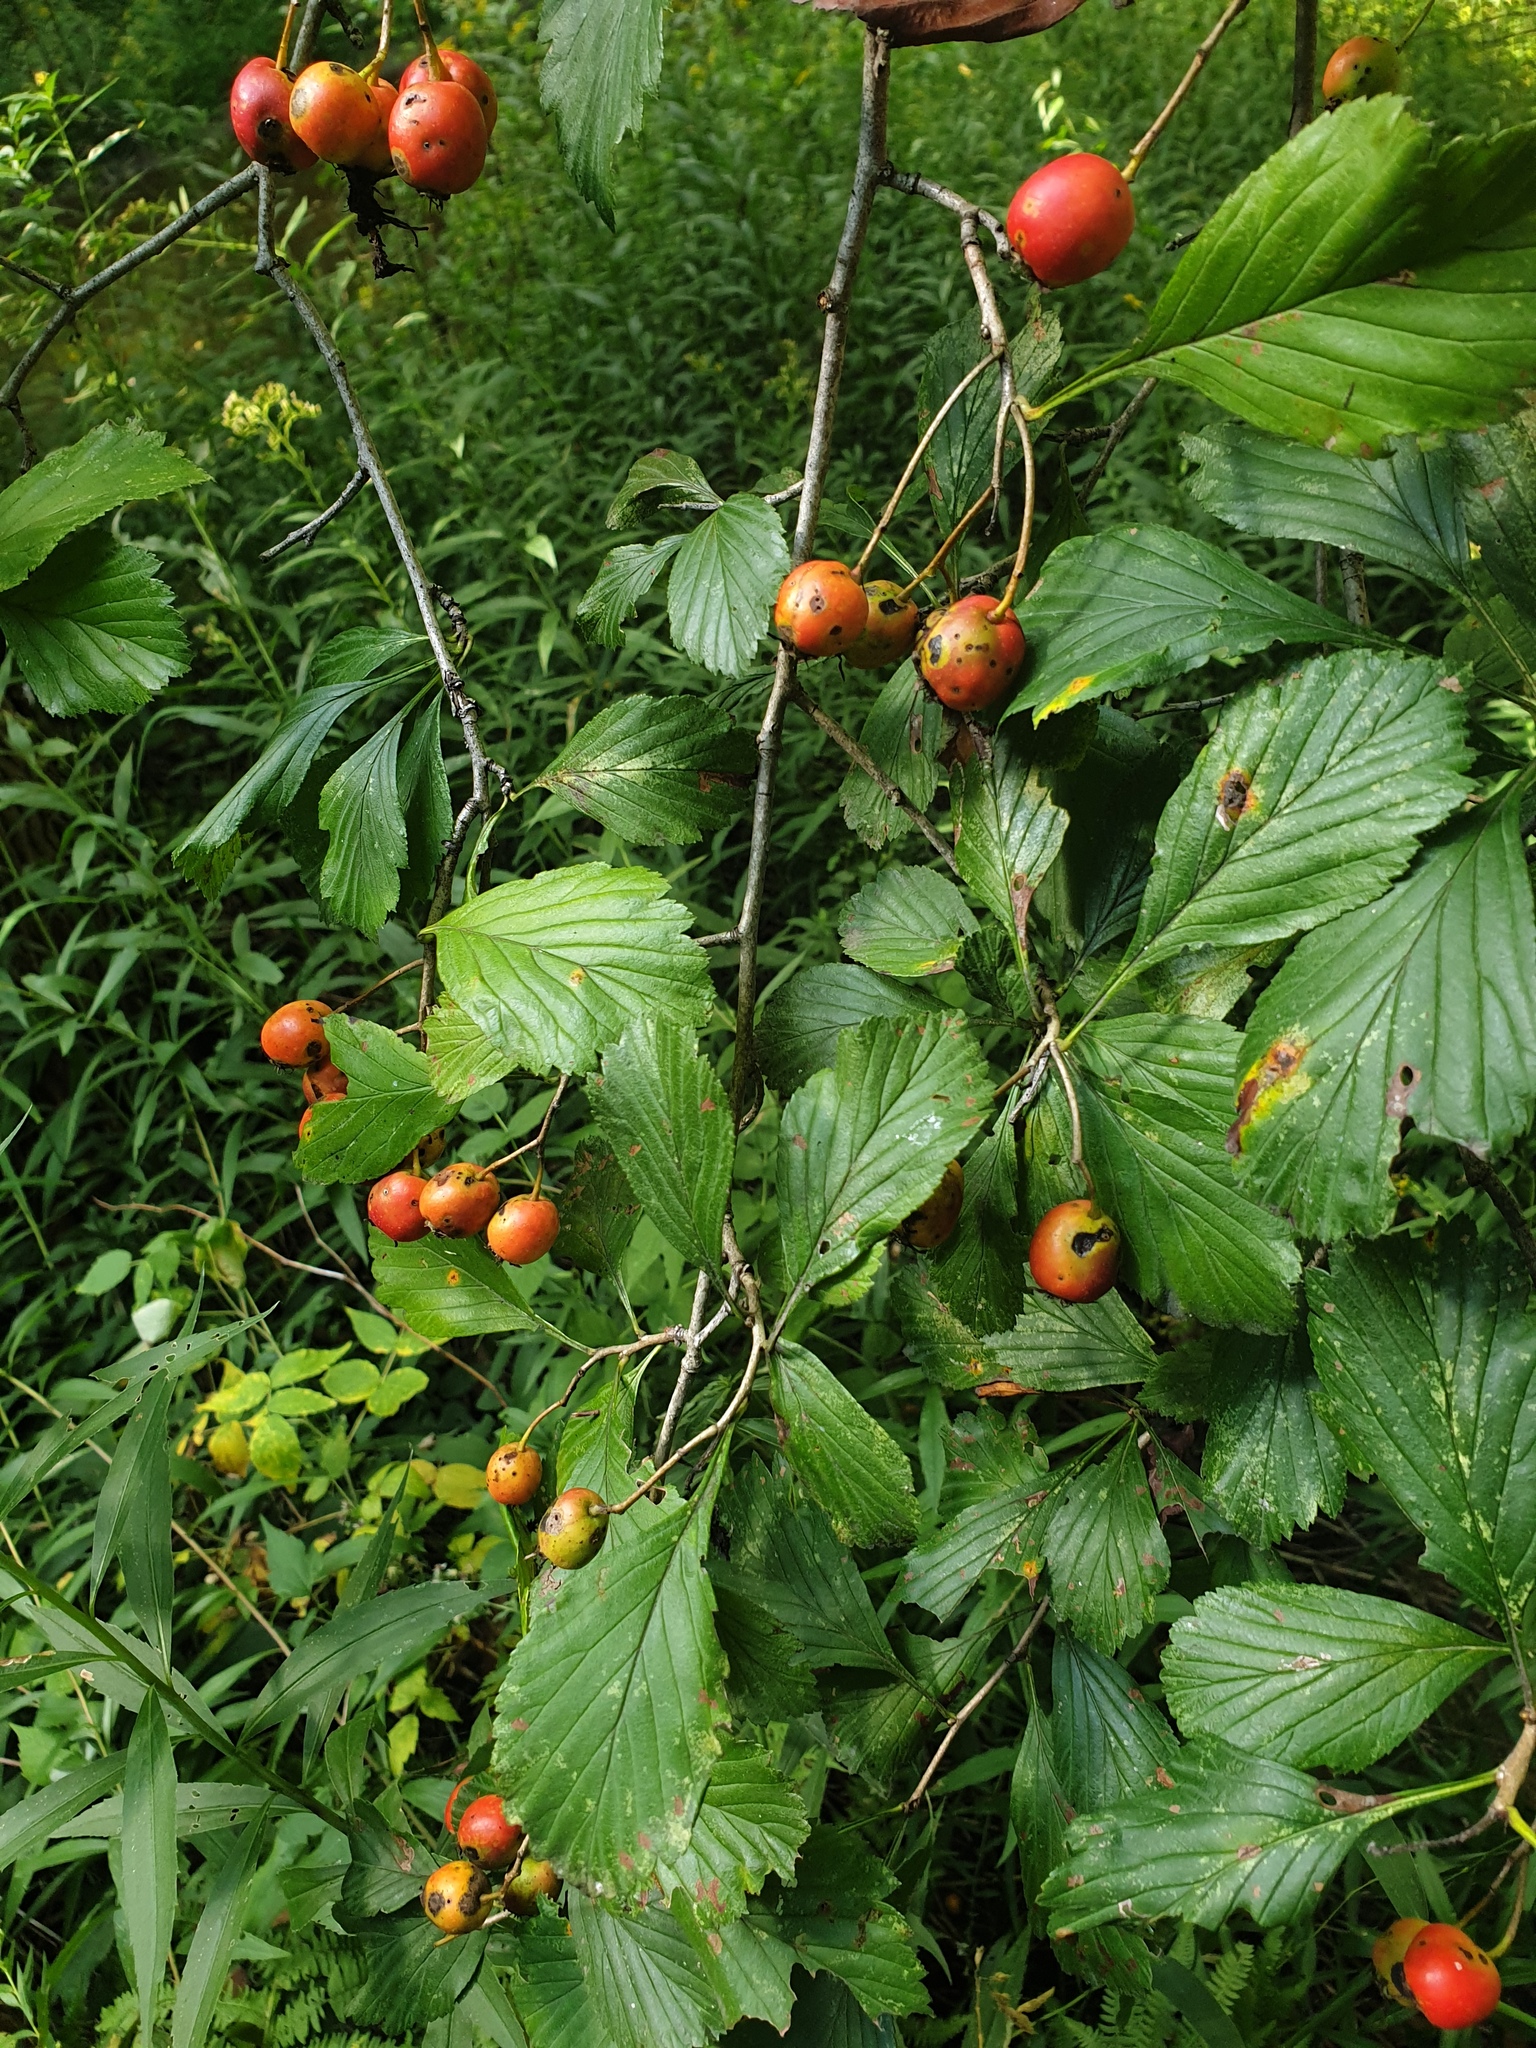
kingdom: Plantae
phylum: Tracheophyta
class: Magnoliopsida
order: Rosales
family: Rosaceae
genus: Crataegus
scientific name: Crataegus punctata
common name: Dotted hawthorn
